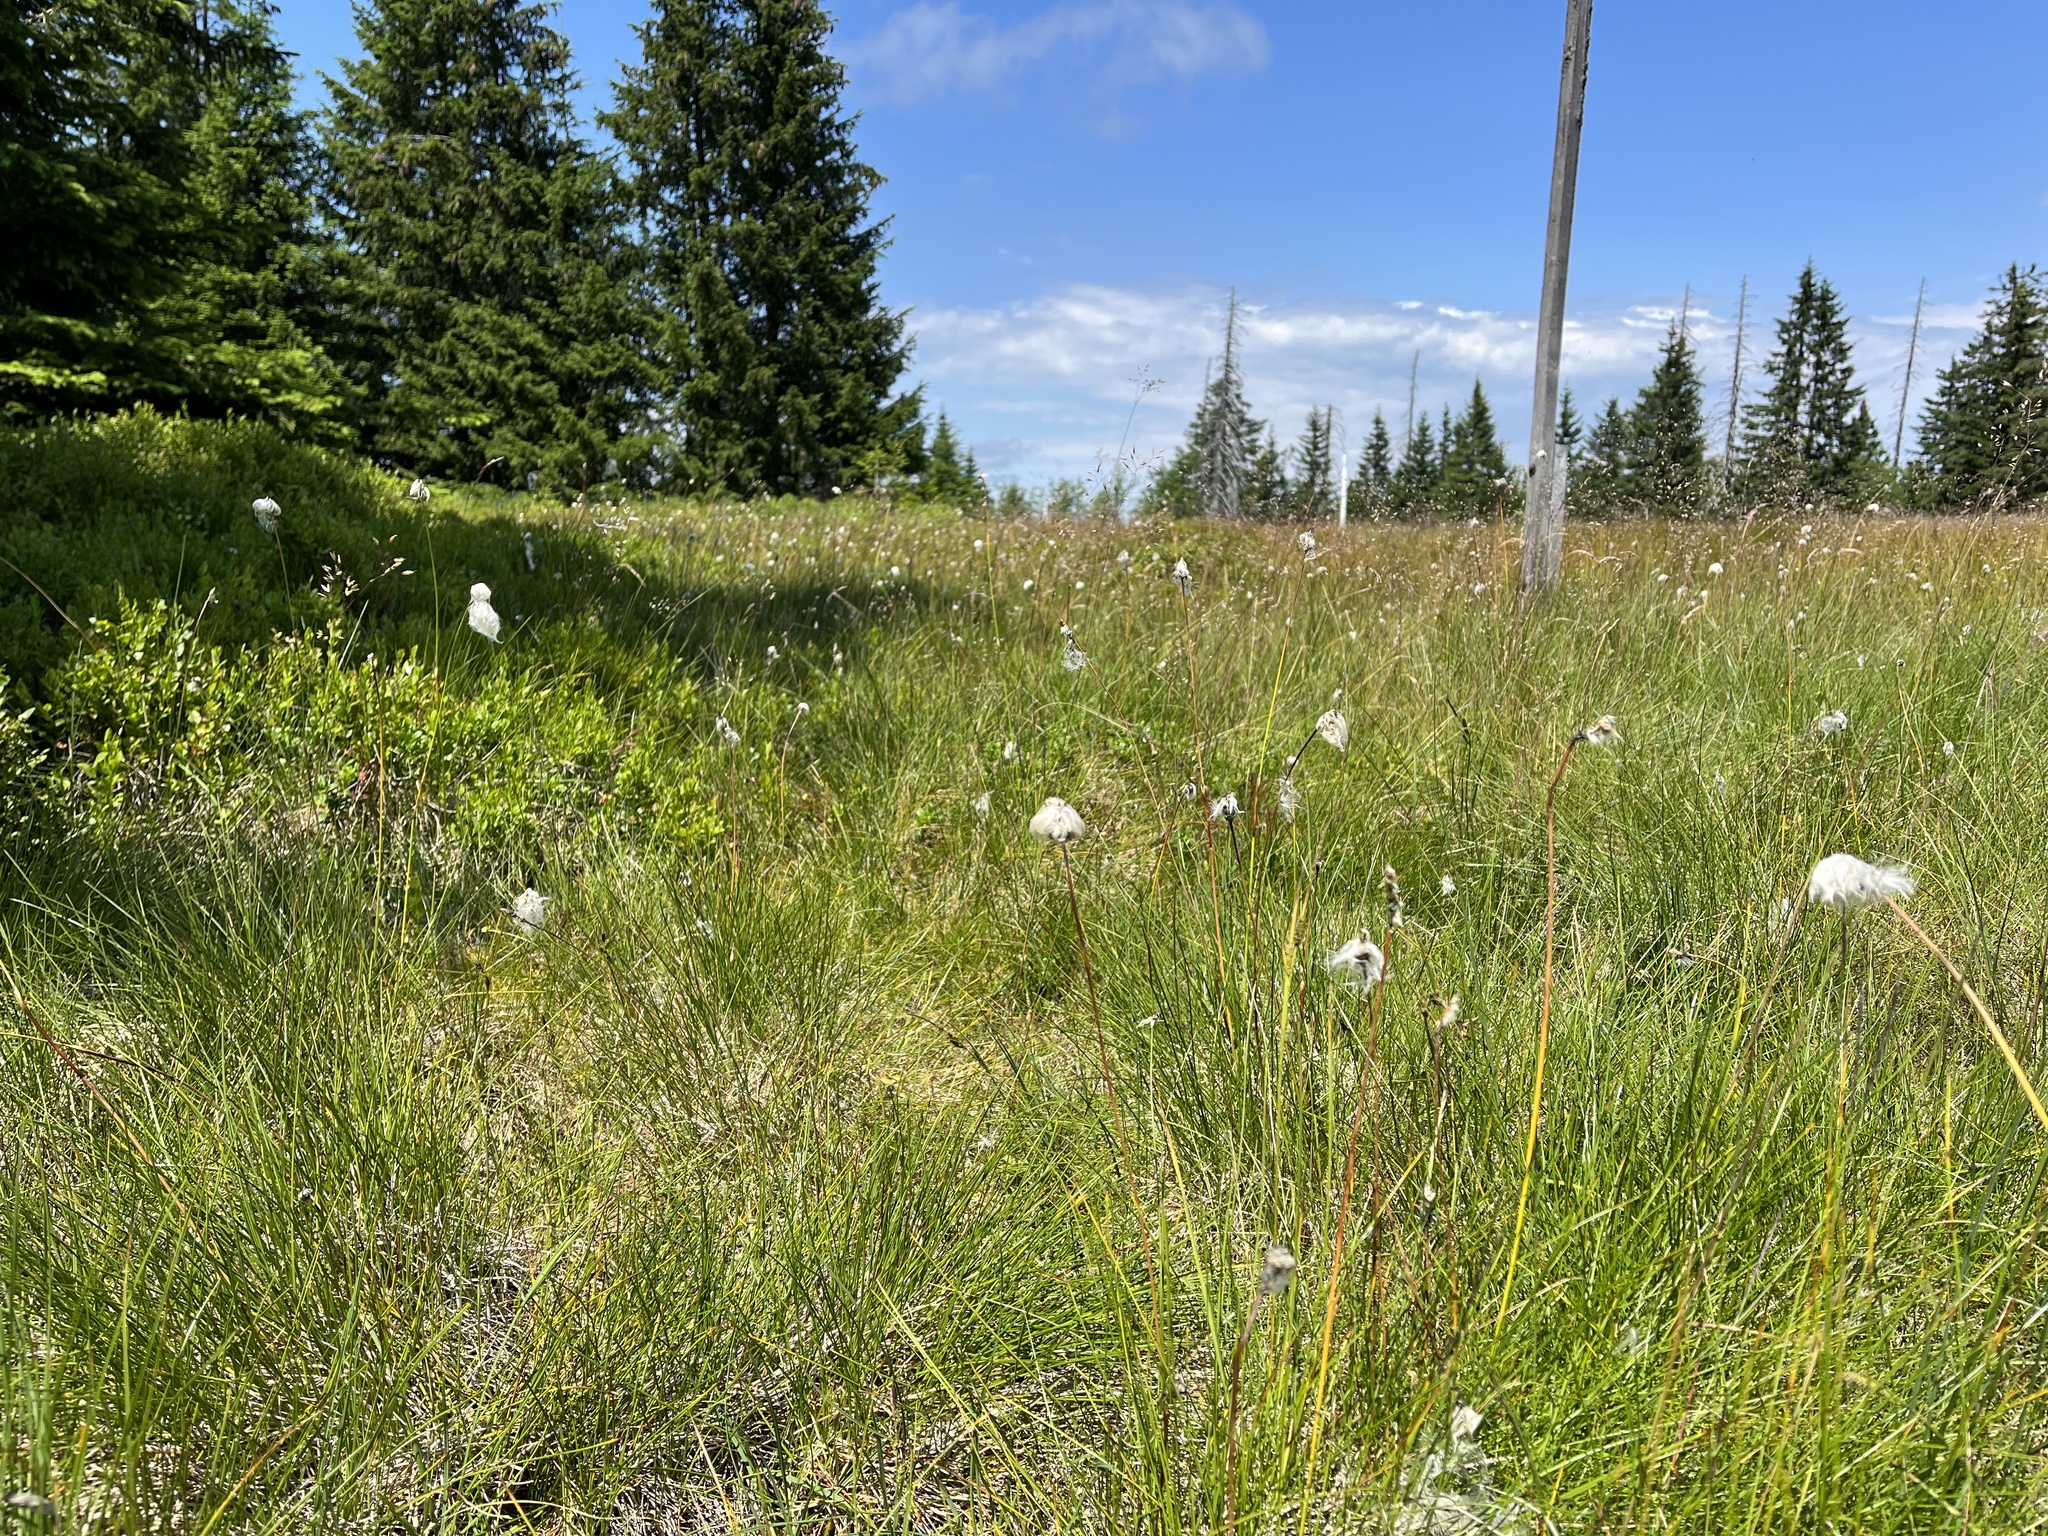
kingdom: Plantae
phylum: Tracheophyta
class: Liliopsida
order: Poales
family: Cyperaceae
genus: Eriophorum
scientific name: Eriophorum vaginatum
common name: Hare's-tail cottongrass
